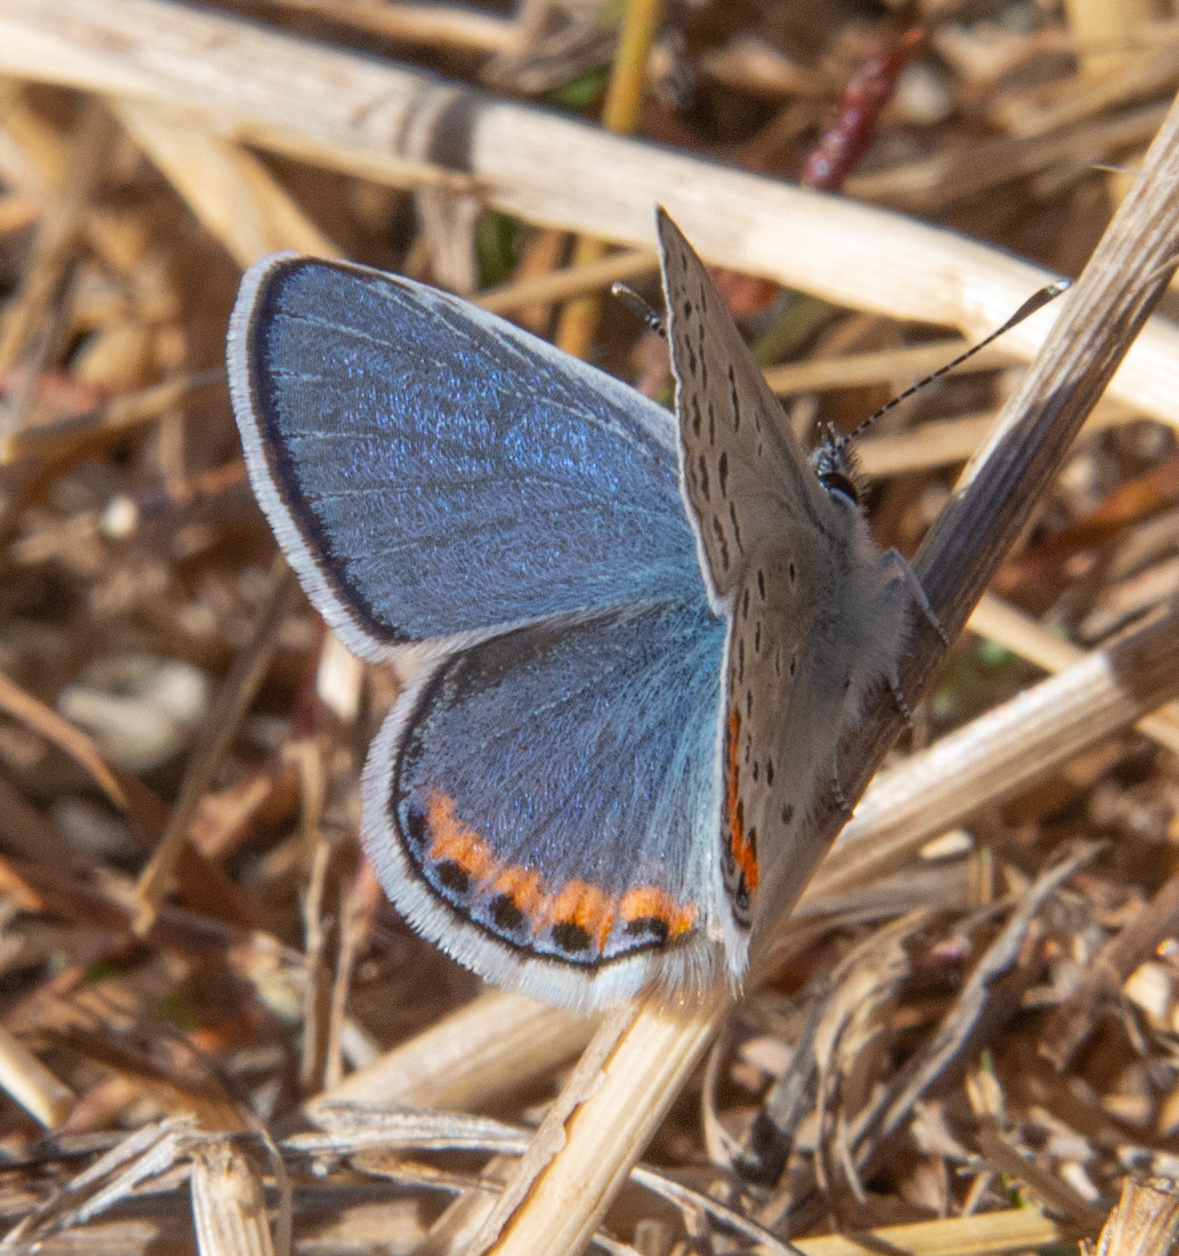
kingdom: Animalia
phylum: Arthropoda
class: Insecta
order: Lepidoptera
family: Lycaenidae
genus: Icaricia
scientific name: Icaricia acmon
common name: Acmon blue
